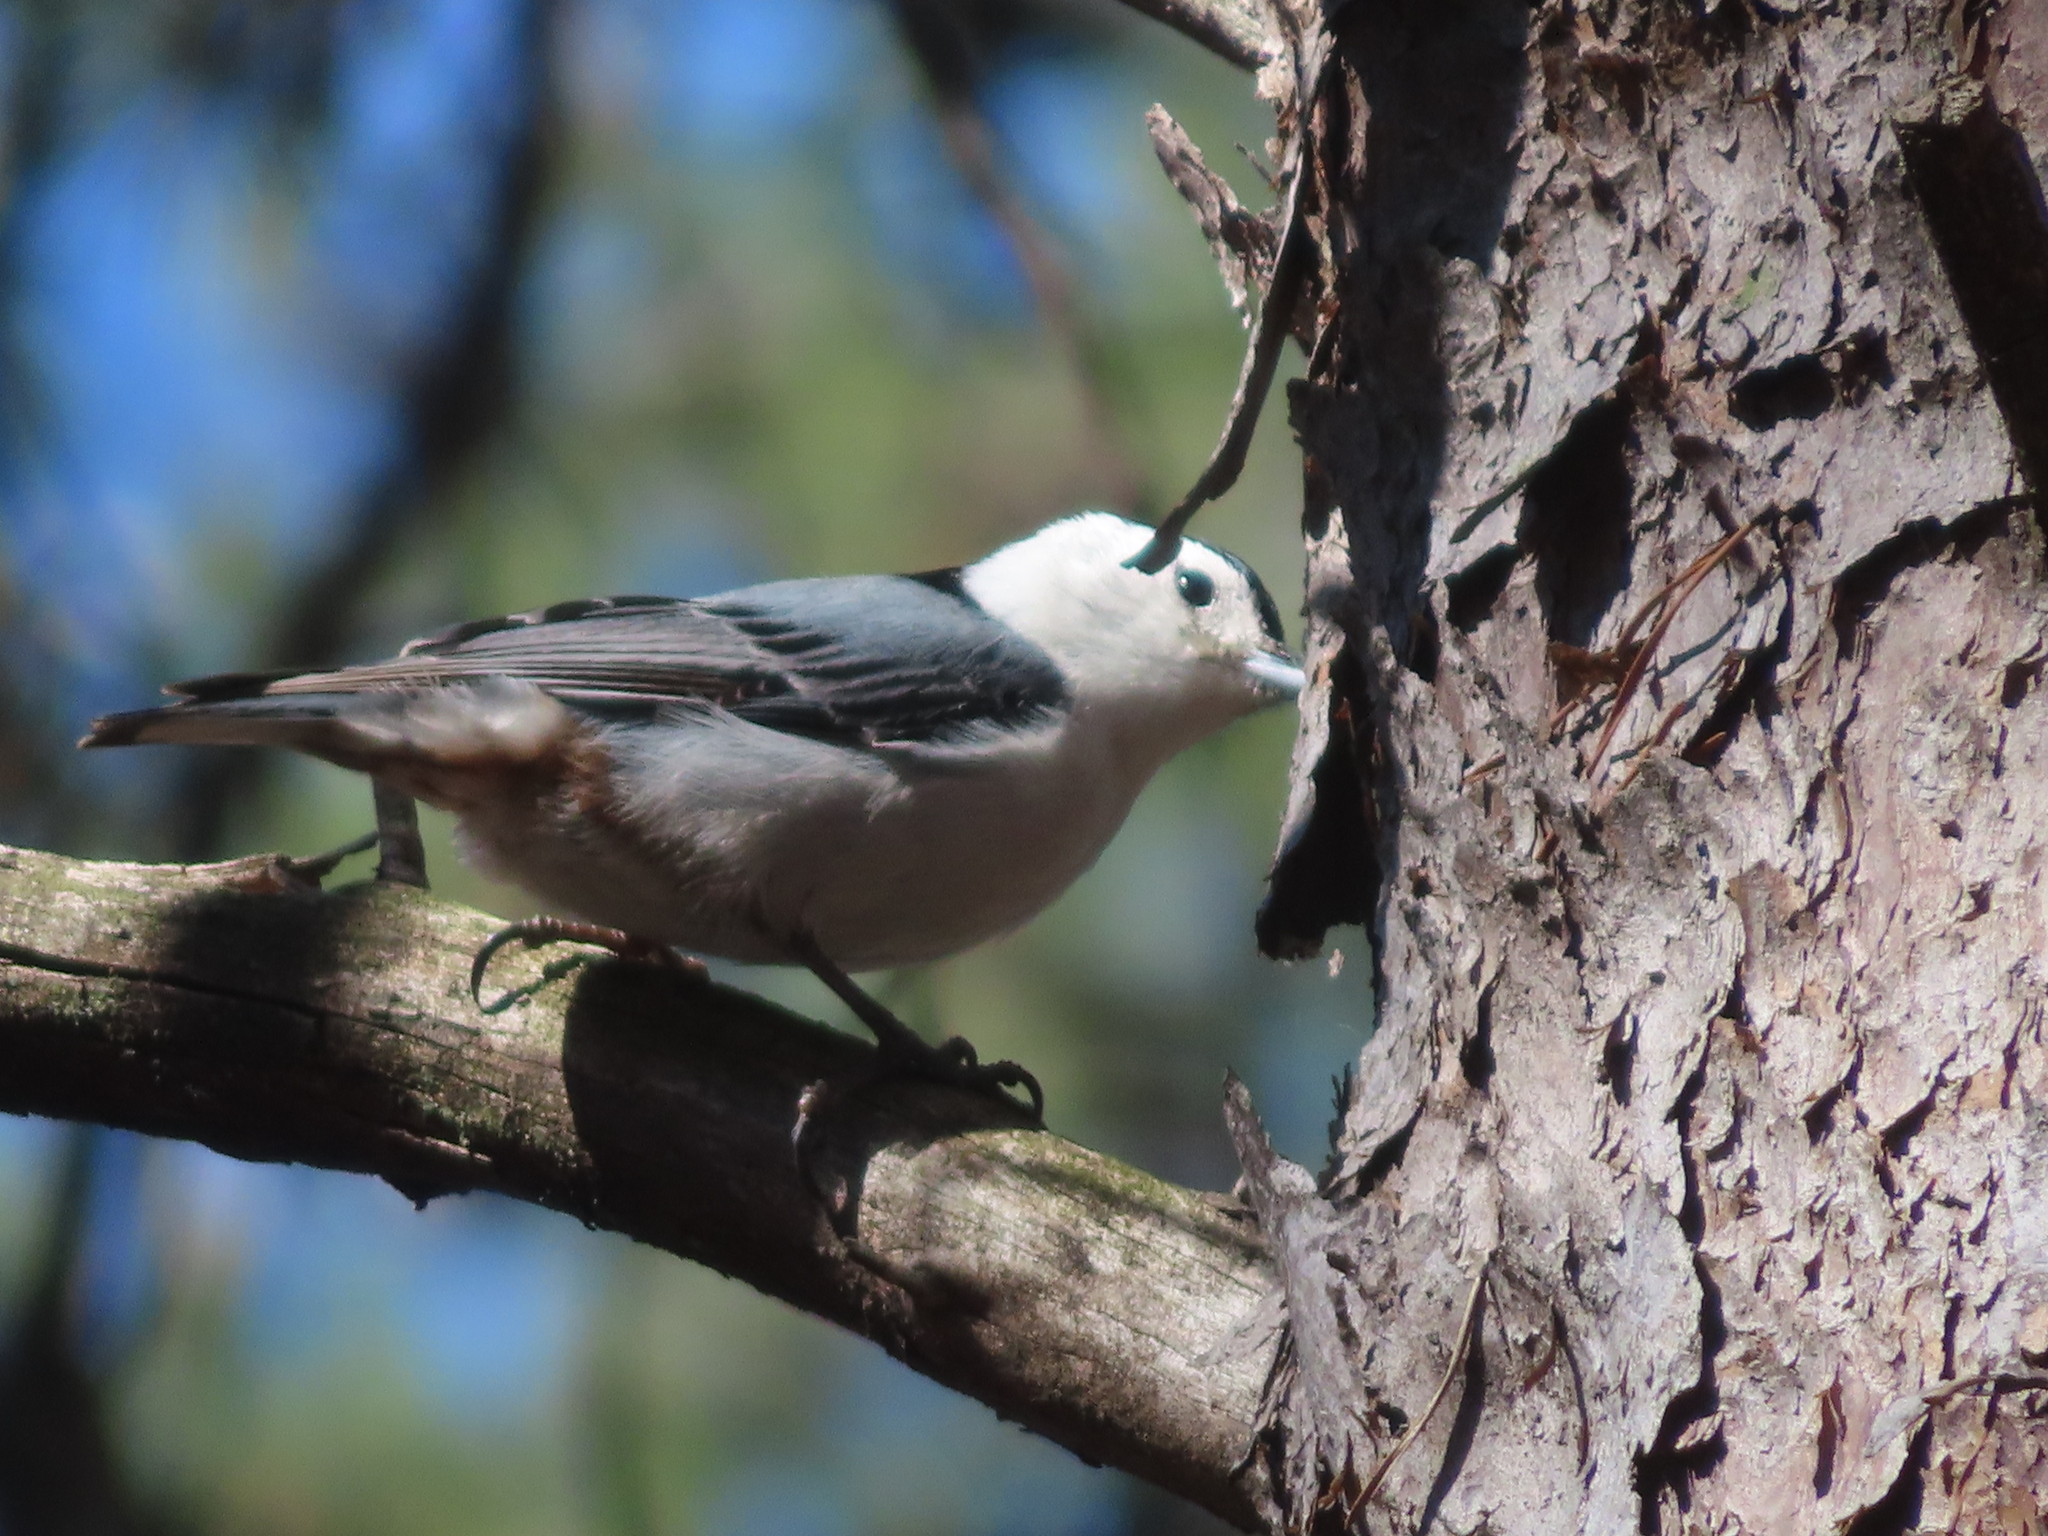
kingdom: Animalia
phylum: Chordata
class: Aves
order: Passeriformes
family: Sittidae
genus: Sitta
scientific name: Sitta carolinensis
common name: White-breasted nuthatch
